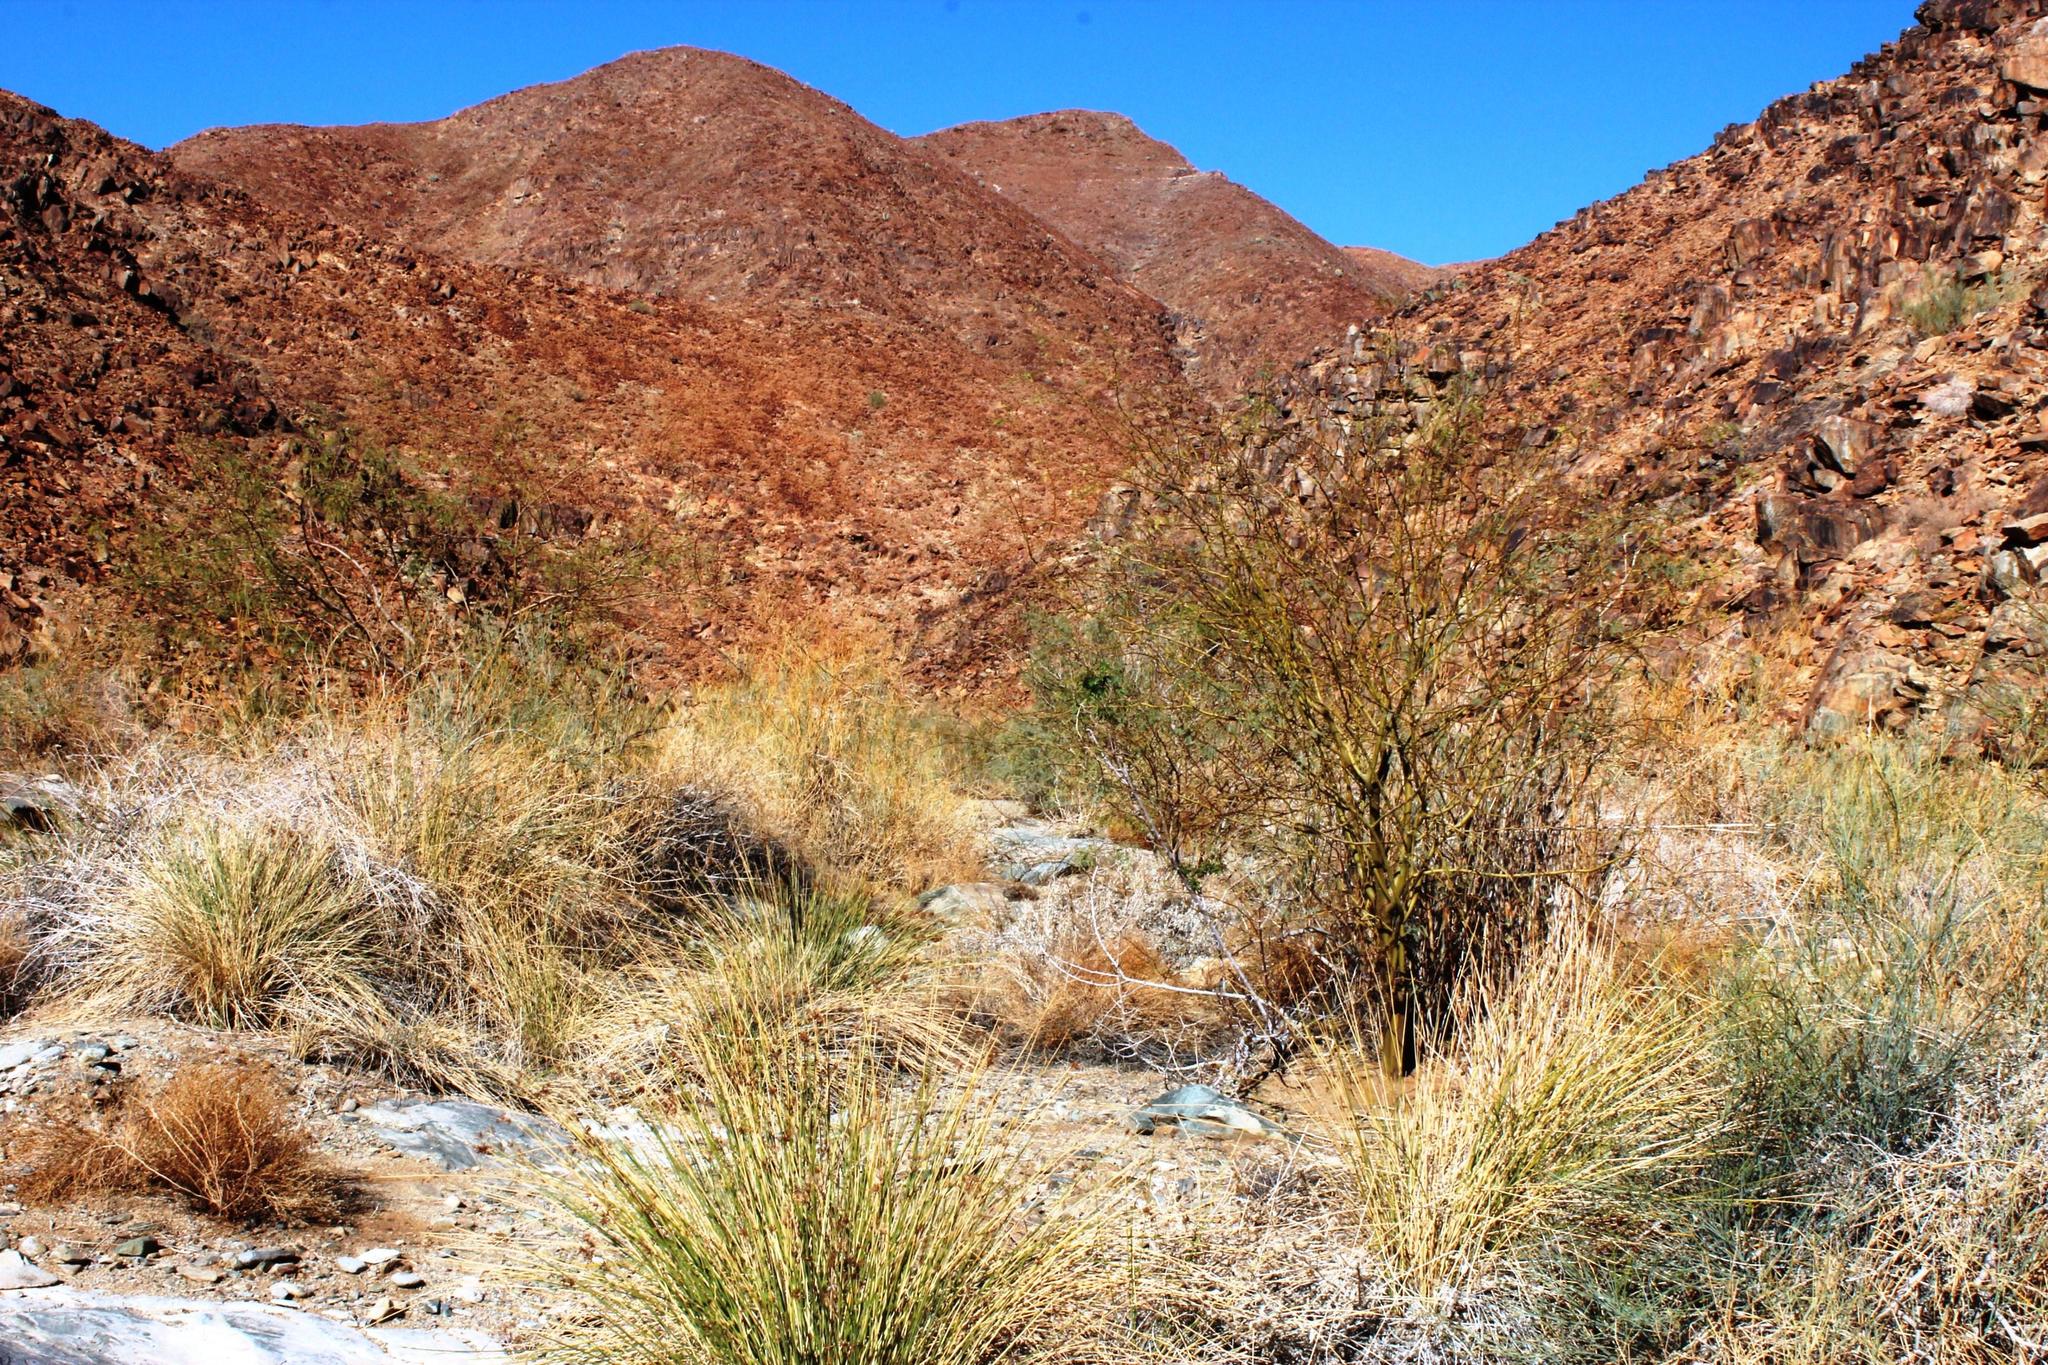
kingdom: Plantae
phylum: Tracheophyta
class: Magnoliopsida
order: Fabales
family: Fabaceae
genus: Prosopis
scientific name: Prosopis glandulosa
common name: Honey mesquite
